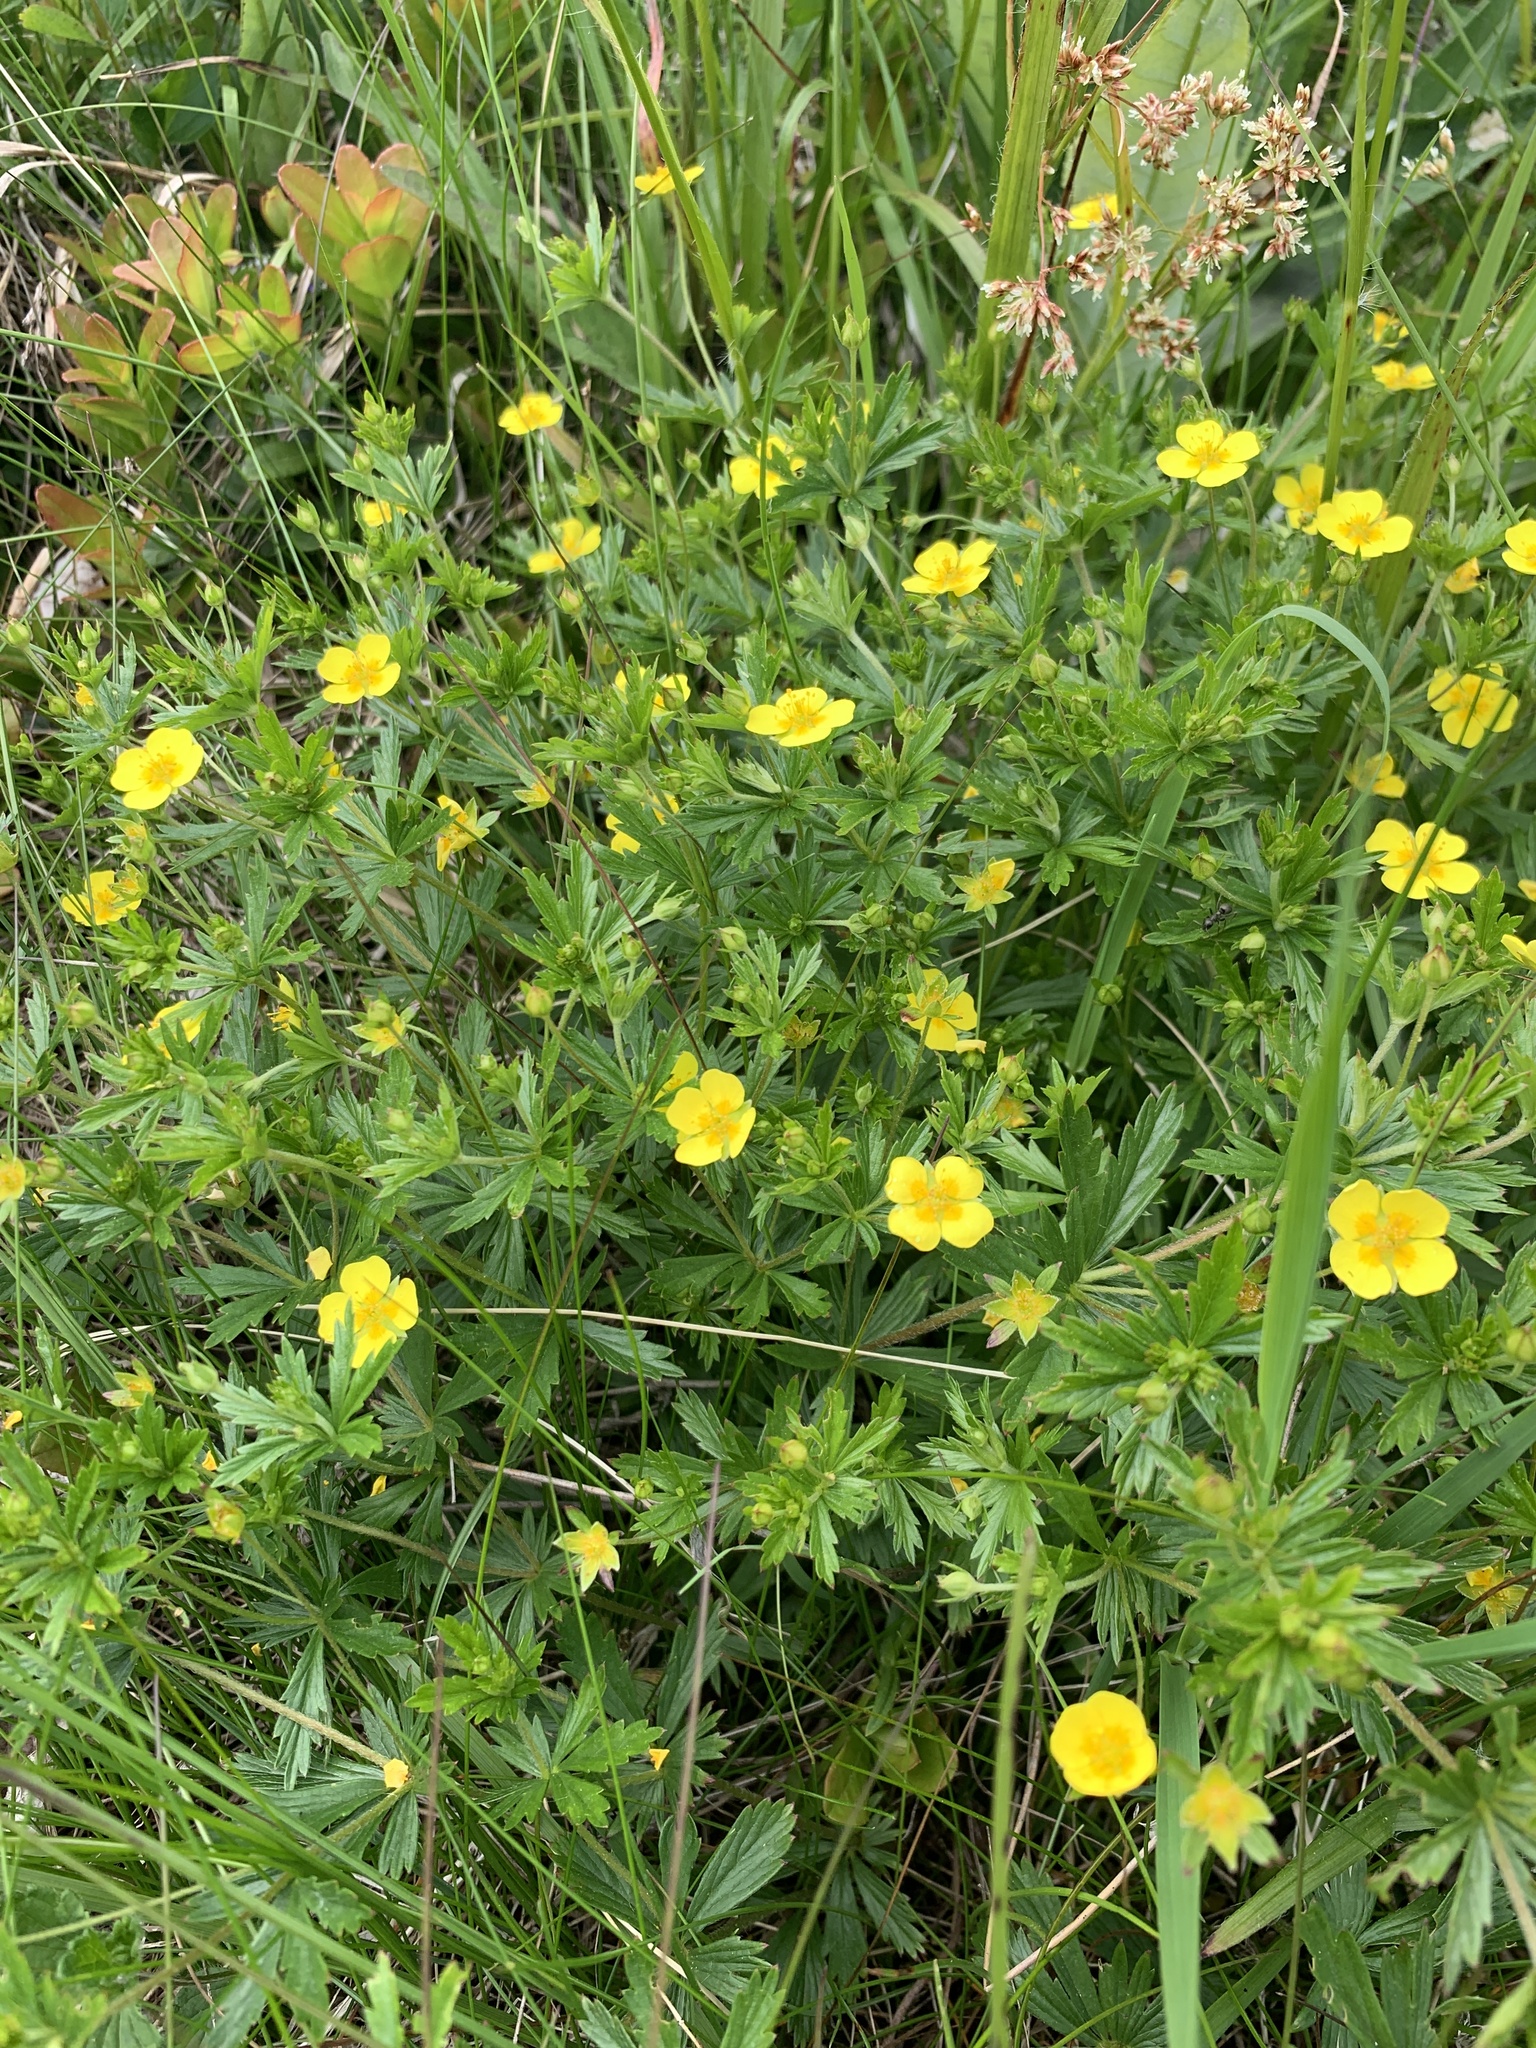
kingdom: Plantae
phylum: Tracheophyta
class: Magnoliopsida
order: Rosales
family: Rosaceae
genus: Potentilla
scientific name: Potentilla erecta
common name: Tormentil
